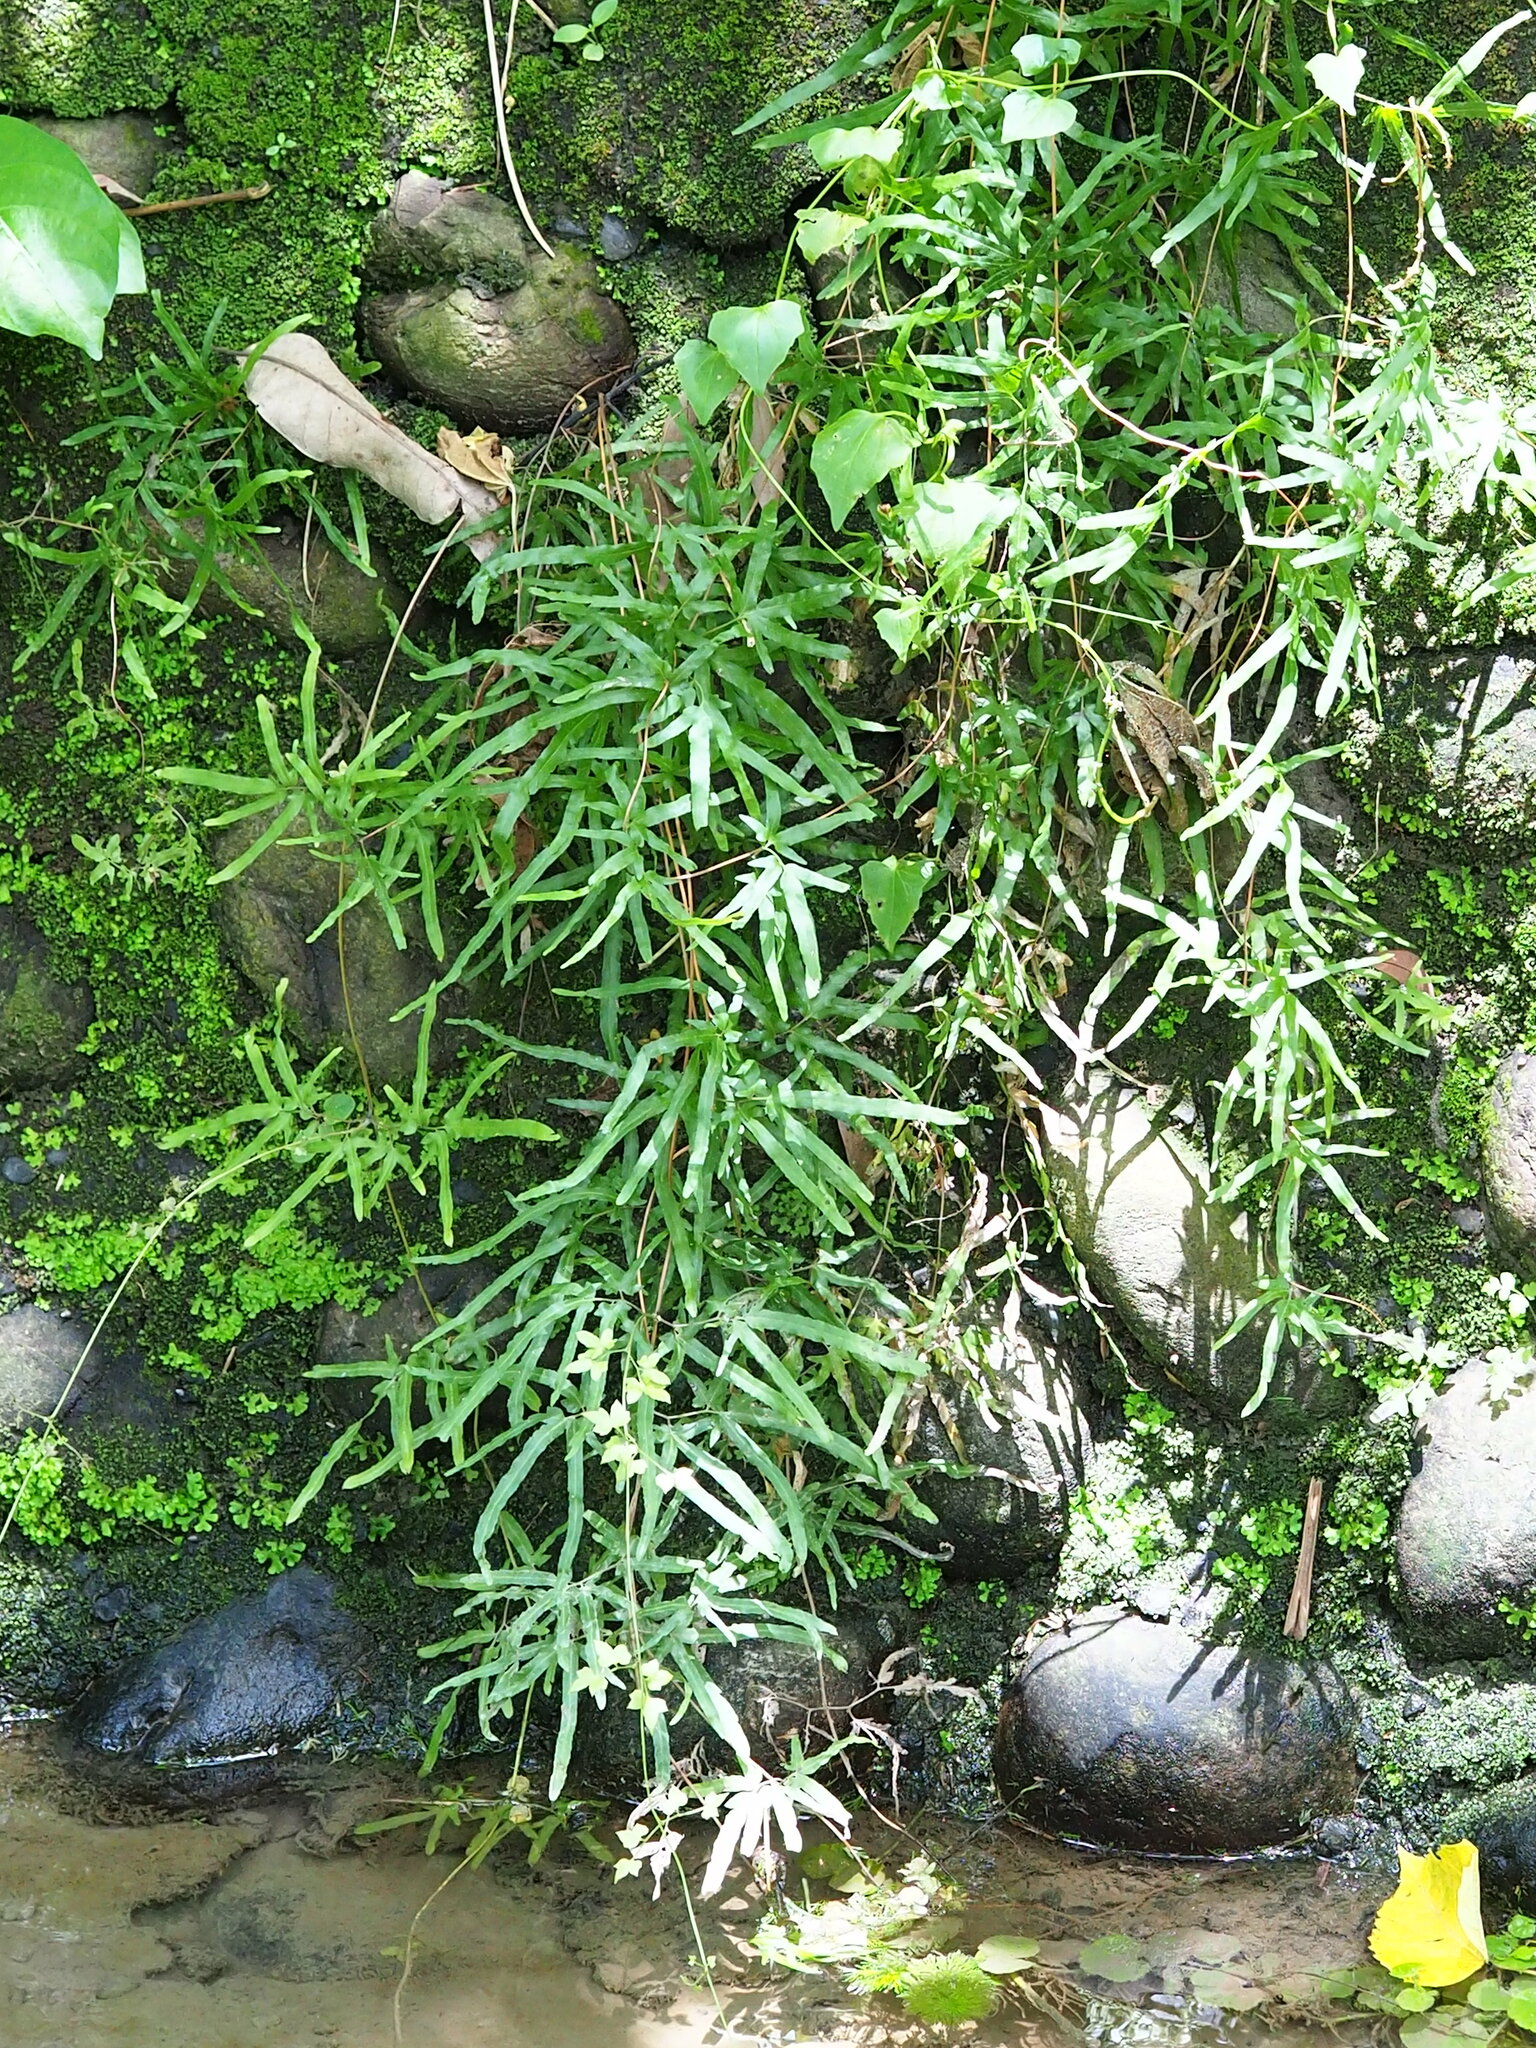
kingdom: Plantae
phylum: Tracheophyta
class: Polypodiopsida
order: Schizaeales
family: Lygodiaceae
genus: Lygodium
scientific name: Lygodium japonicum
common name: Japanese climbing fern
